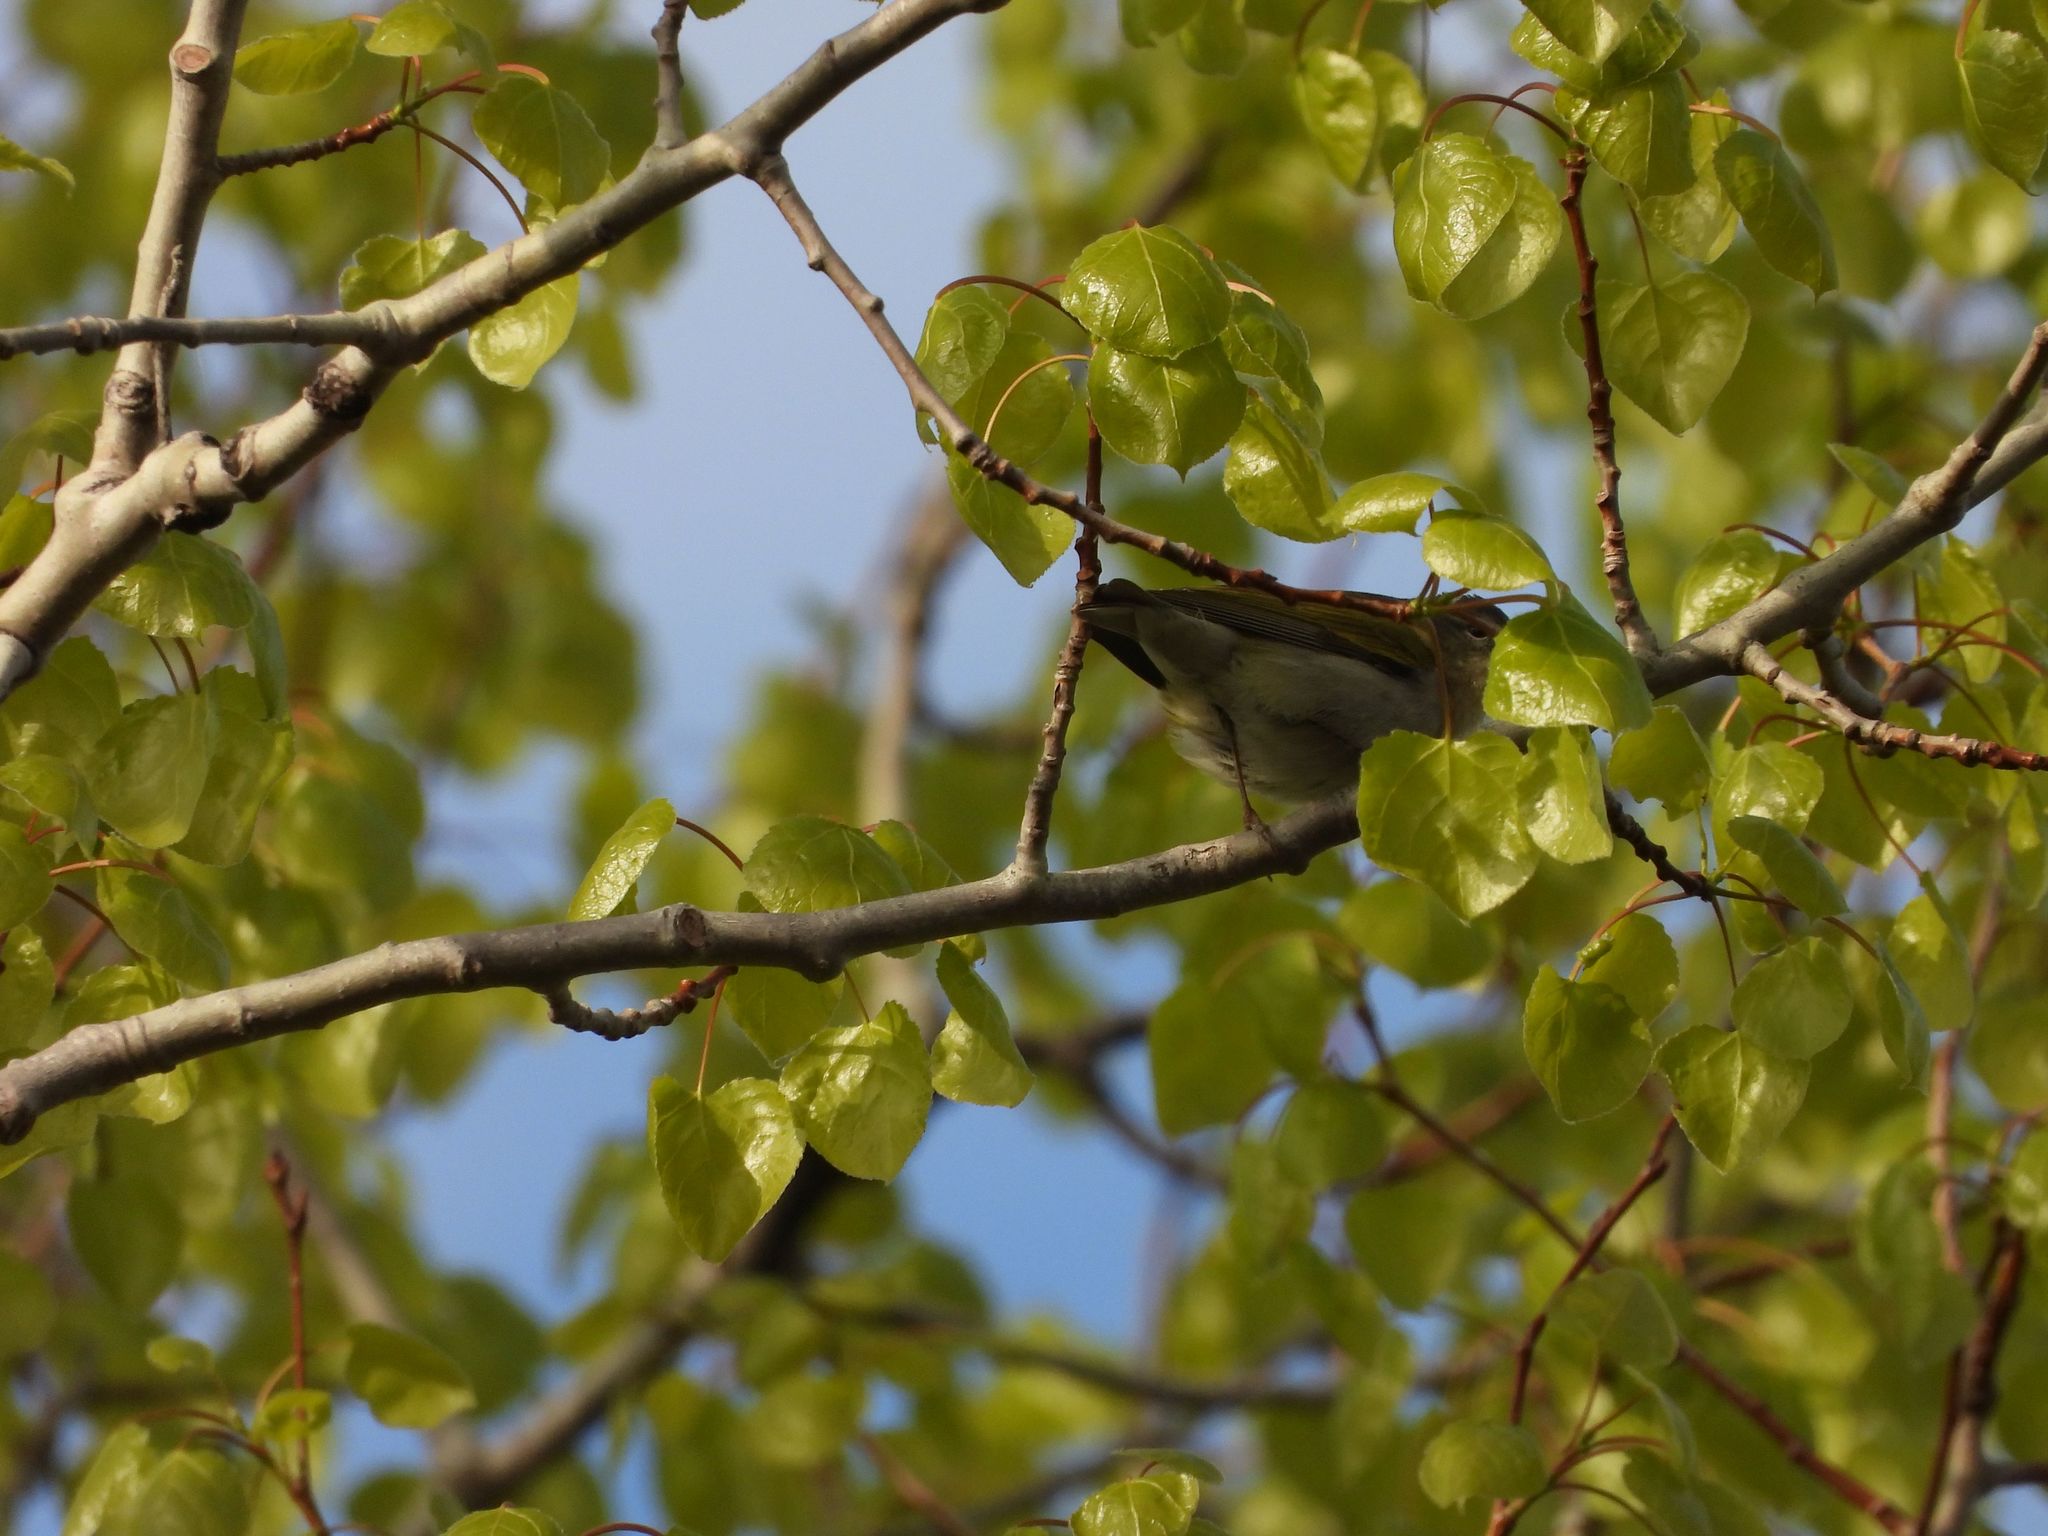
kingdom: Animalia
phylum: Chordata
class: Aves
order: Passeriformes
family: Parulidae
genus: Leiothlypis
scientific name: Leiothlypis peregrina
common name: Tennessee warbler
